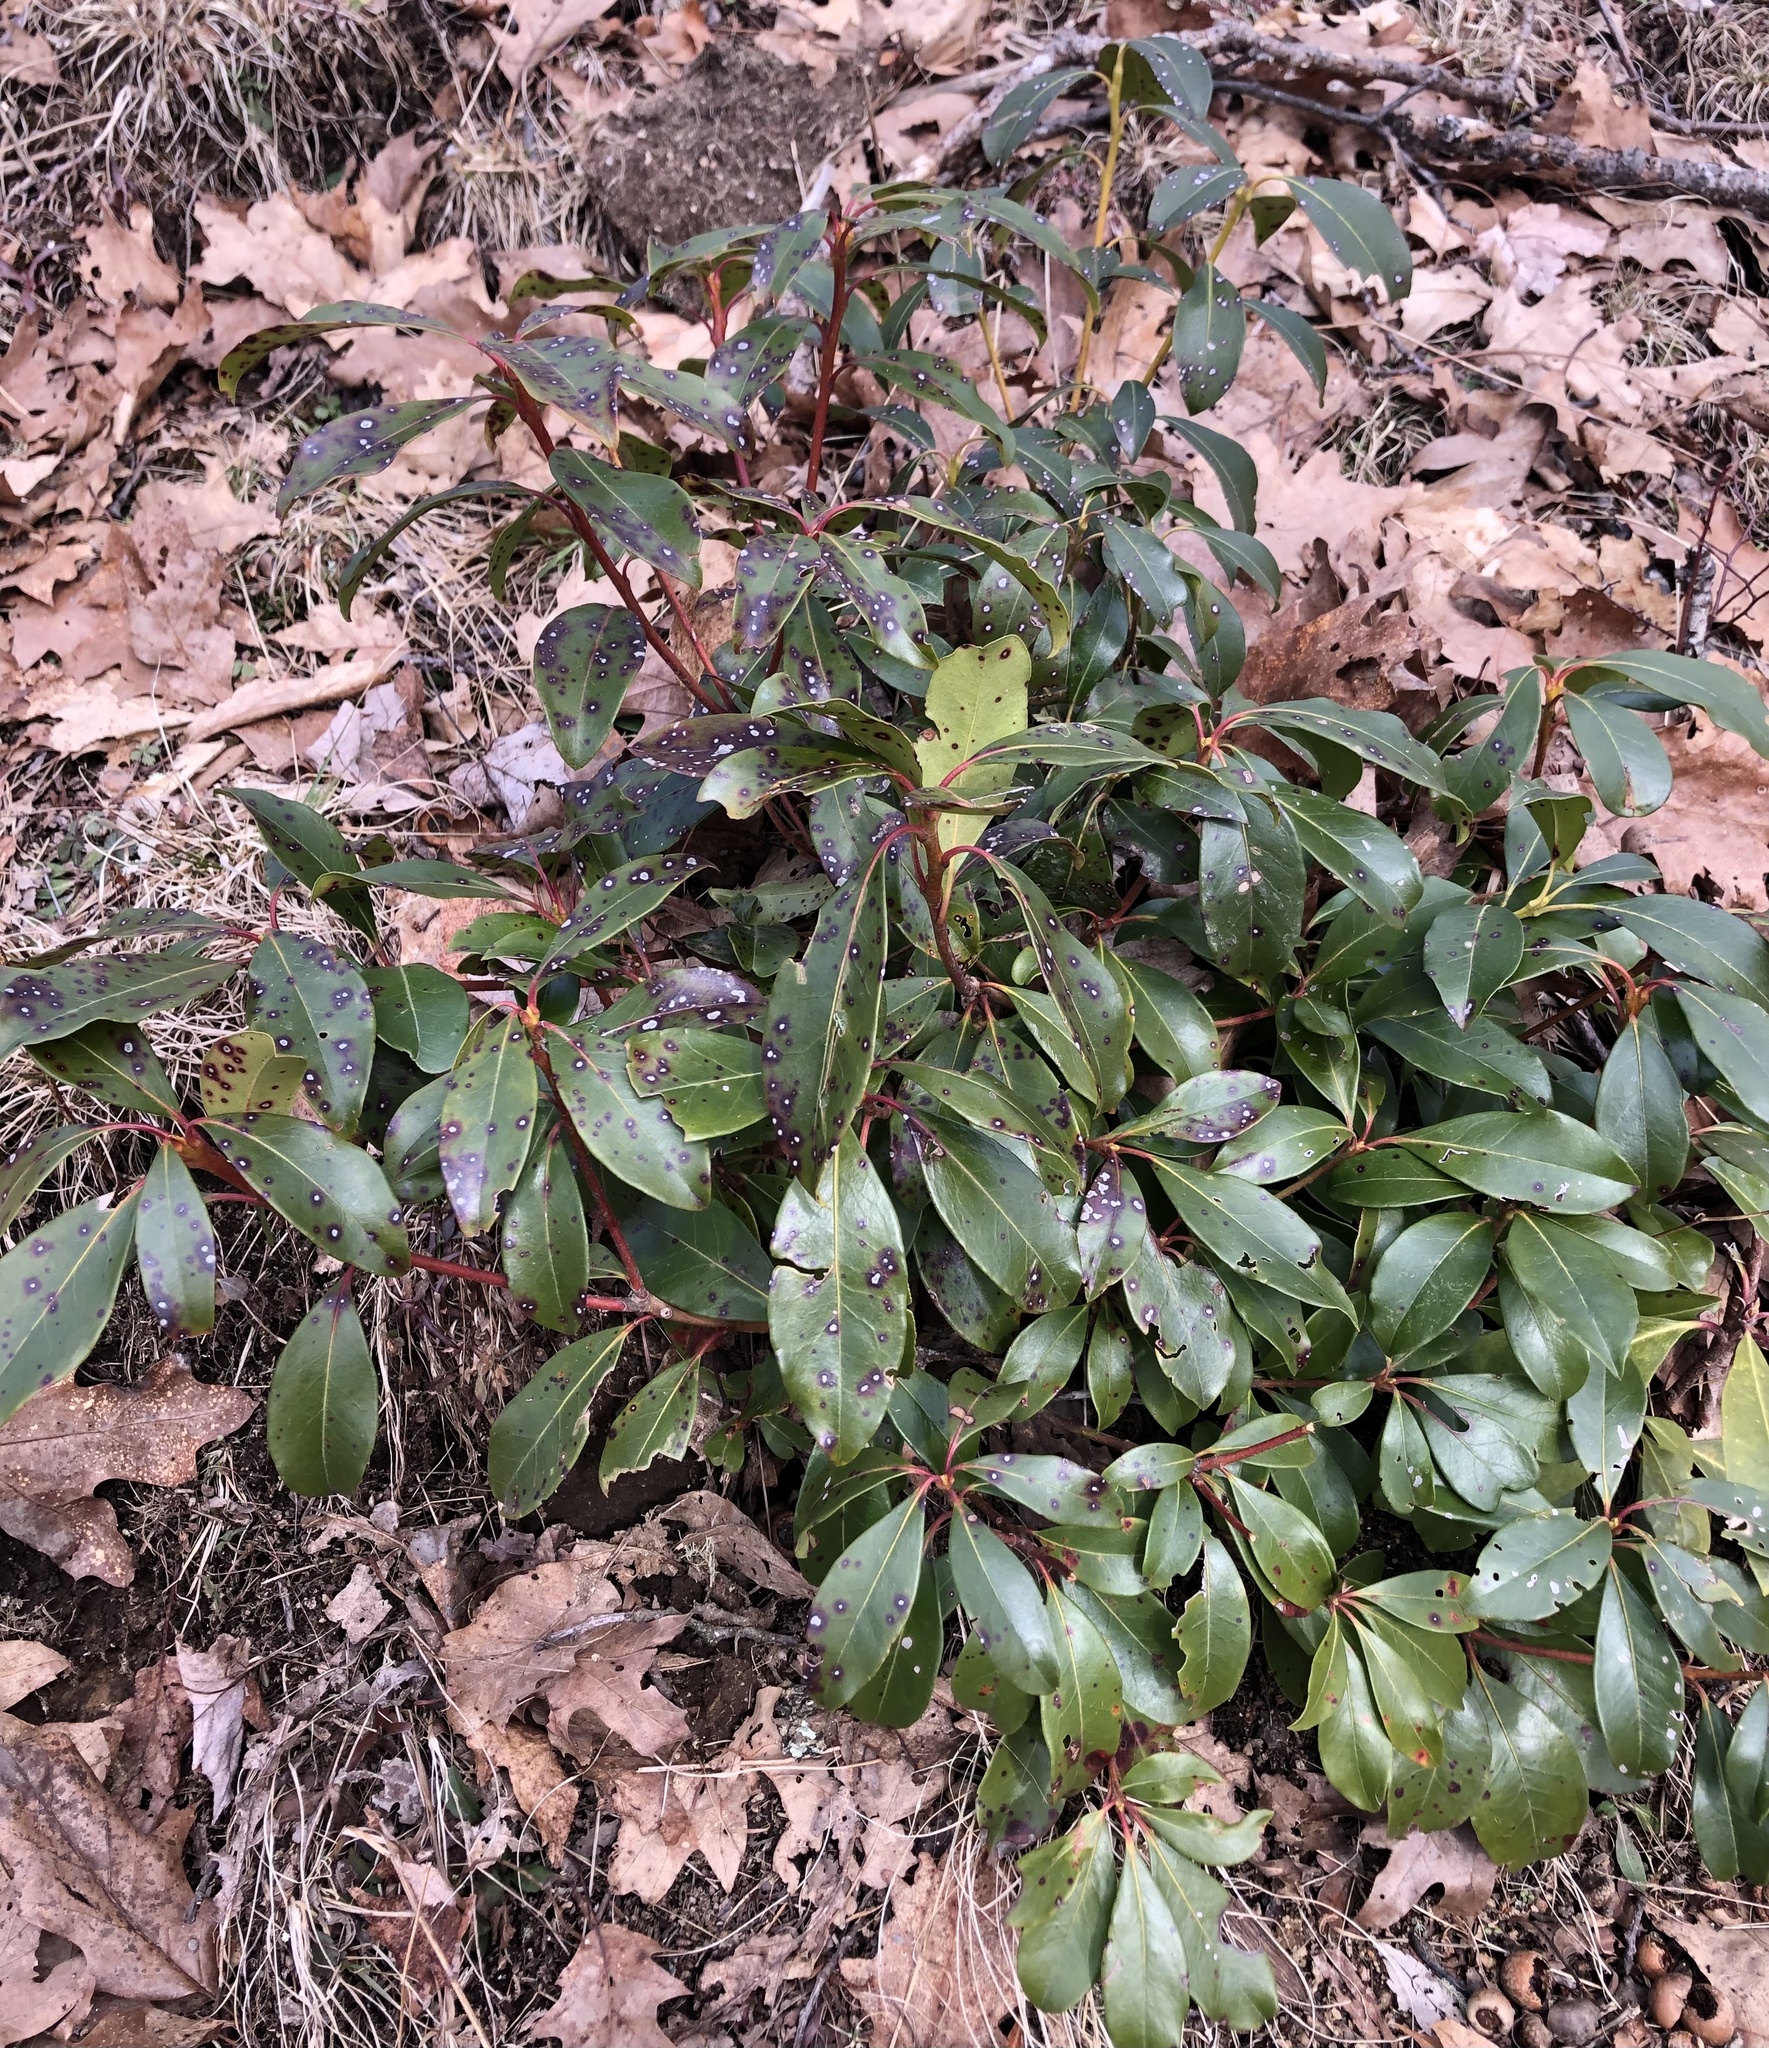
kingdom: Plantae
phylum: Tracheophyta
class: Magnoliopsida
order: Ericales
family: Ericaceae
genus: Kalmia
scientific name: Kalmia latifolia
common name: Mountain-laurel
